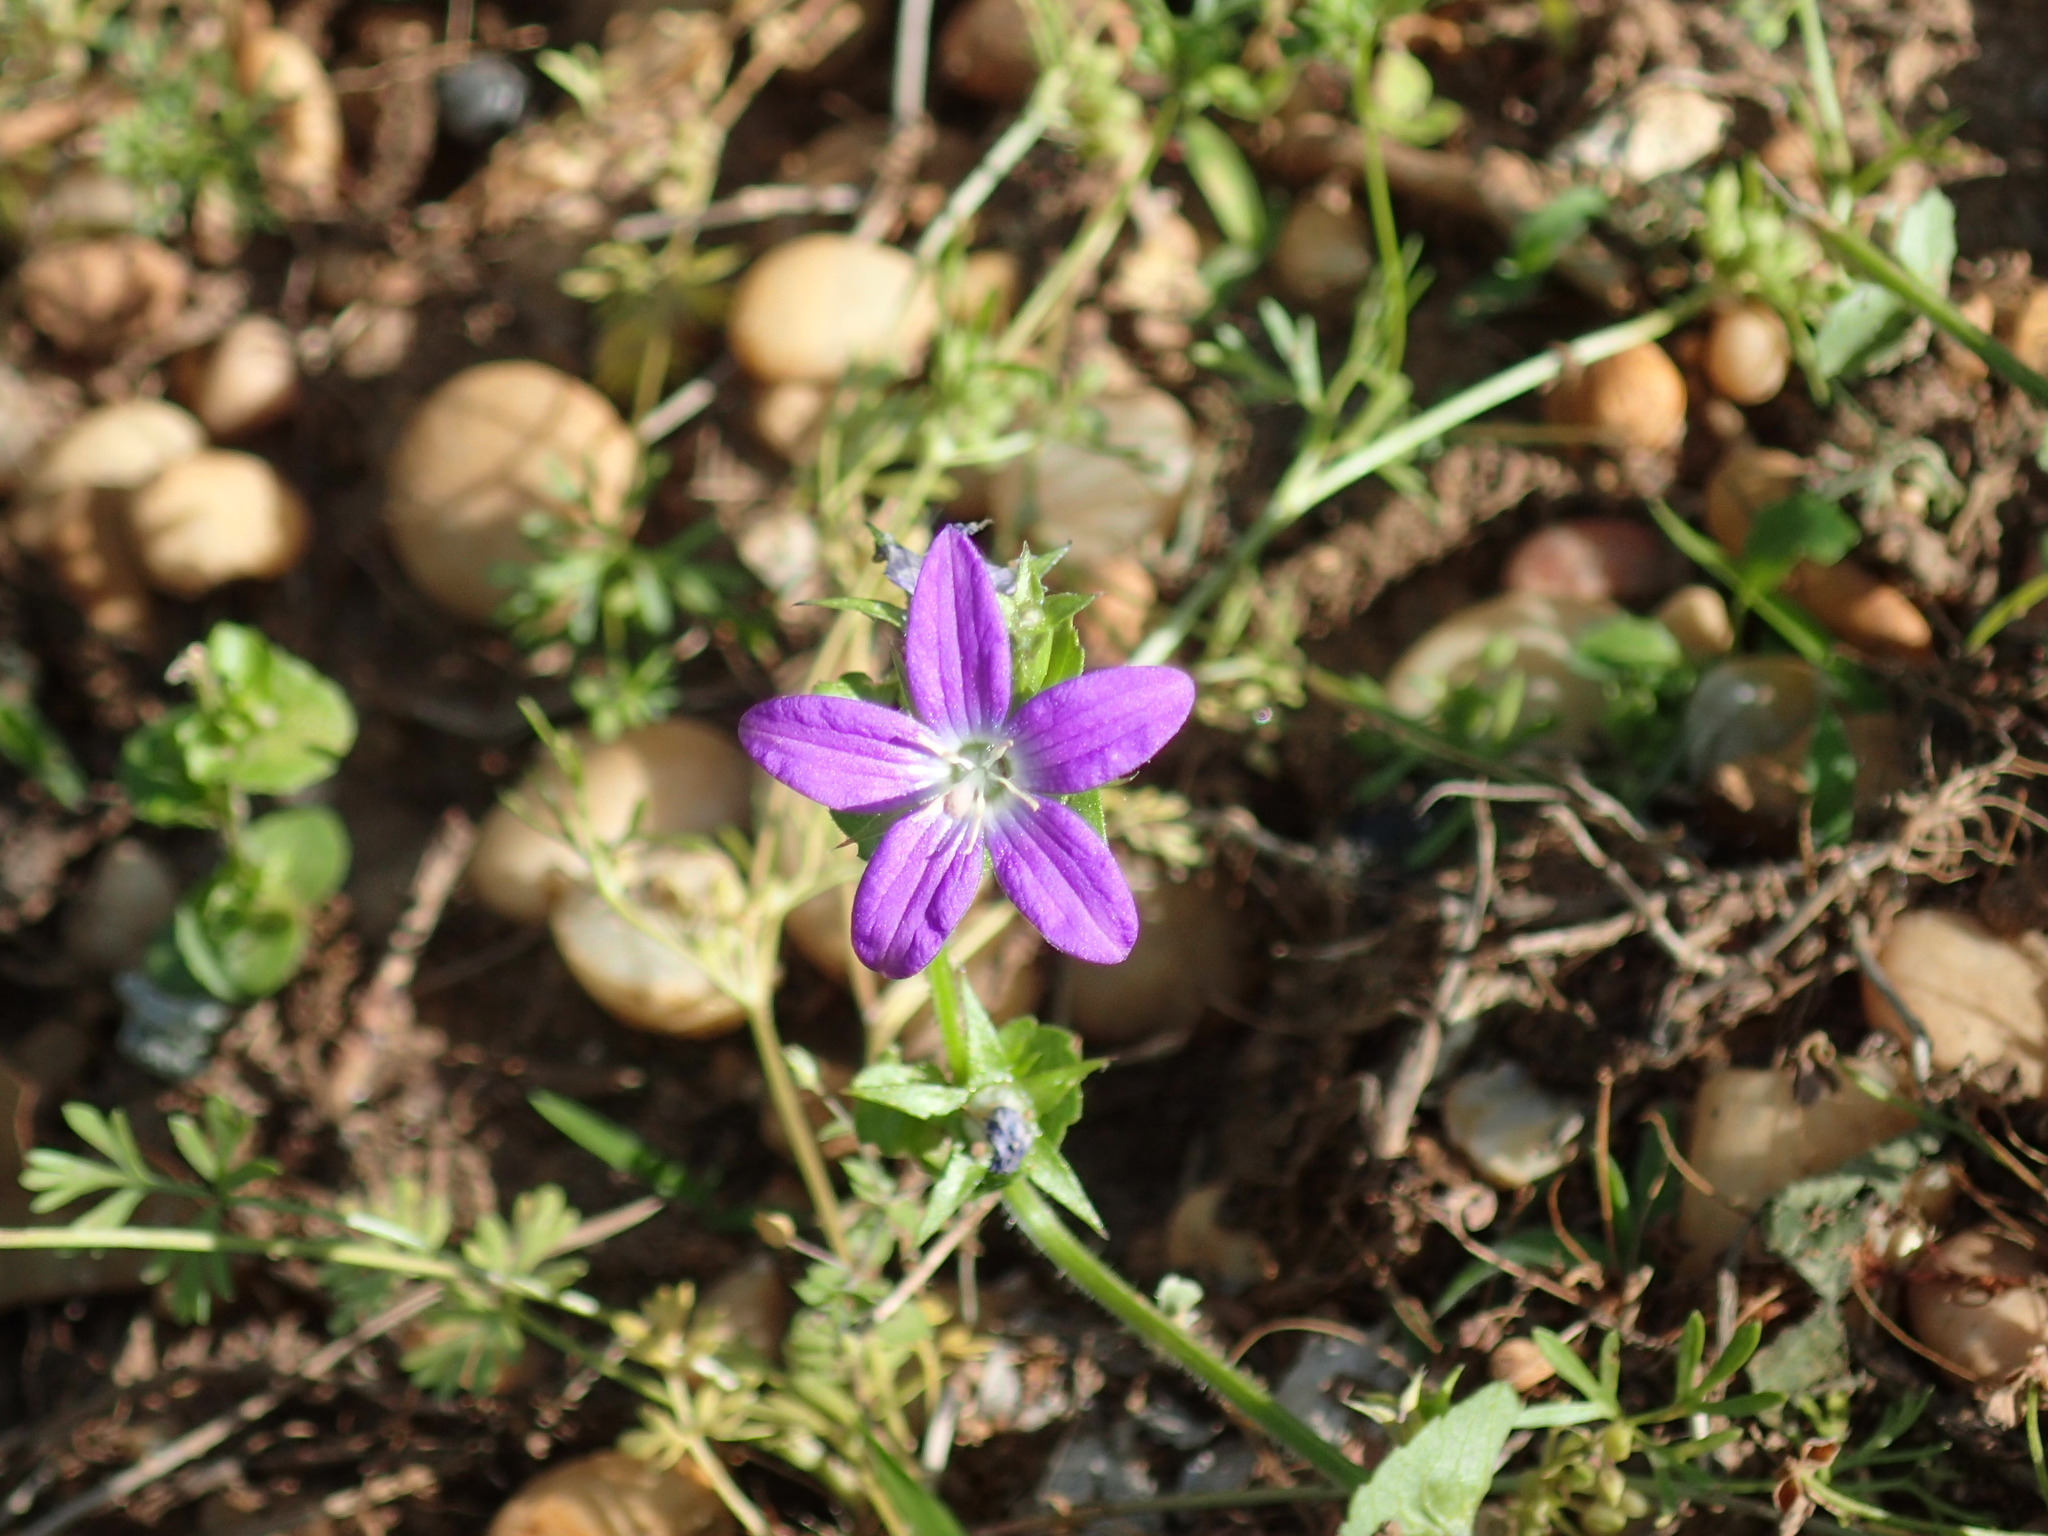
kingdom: Plantae
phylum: Tracheophyta
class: Magnoliopsida
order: Asterales
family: Campanulaceae
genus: Triodanis
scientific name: Triodanis perfoliata
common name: Clasping venus' looking-glass
